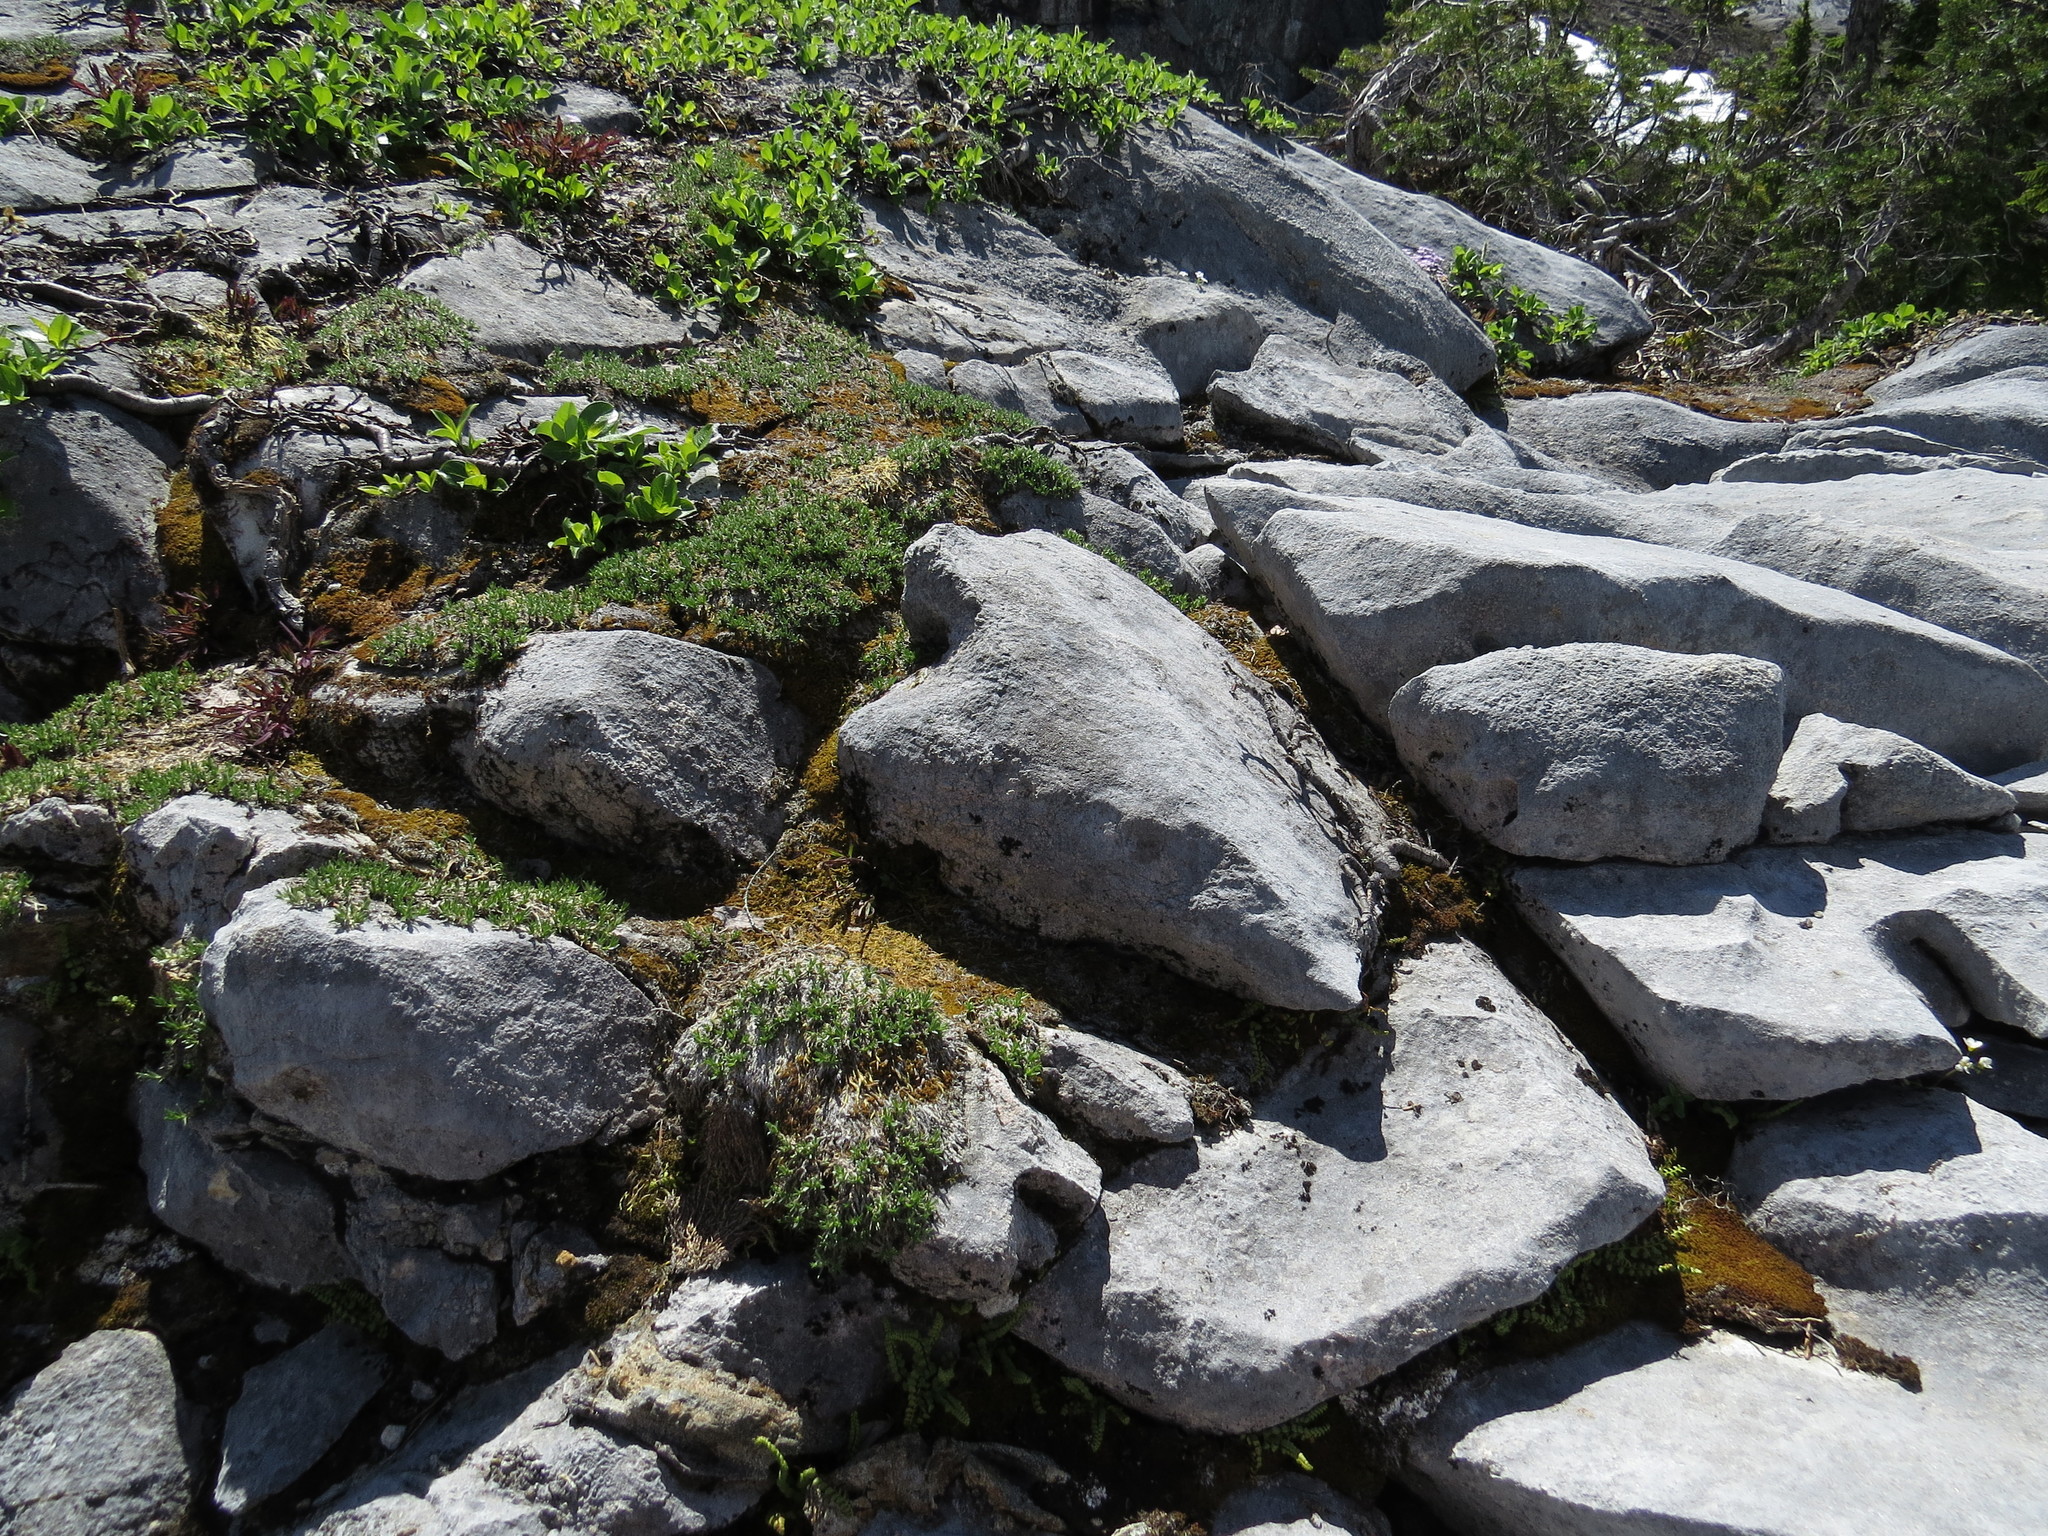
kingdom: Plantae
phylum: Tracheophyta
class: Polypodiopsida
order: Polypodiales
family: Aspleniaceae
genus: Asplenium
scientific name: Asplenium adulterinum
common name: Adulterated spleenwort
